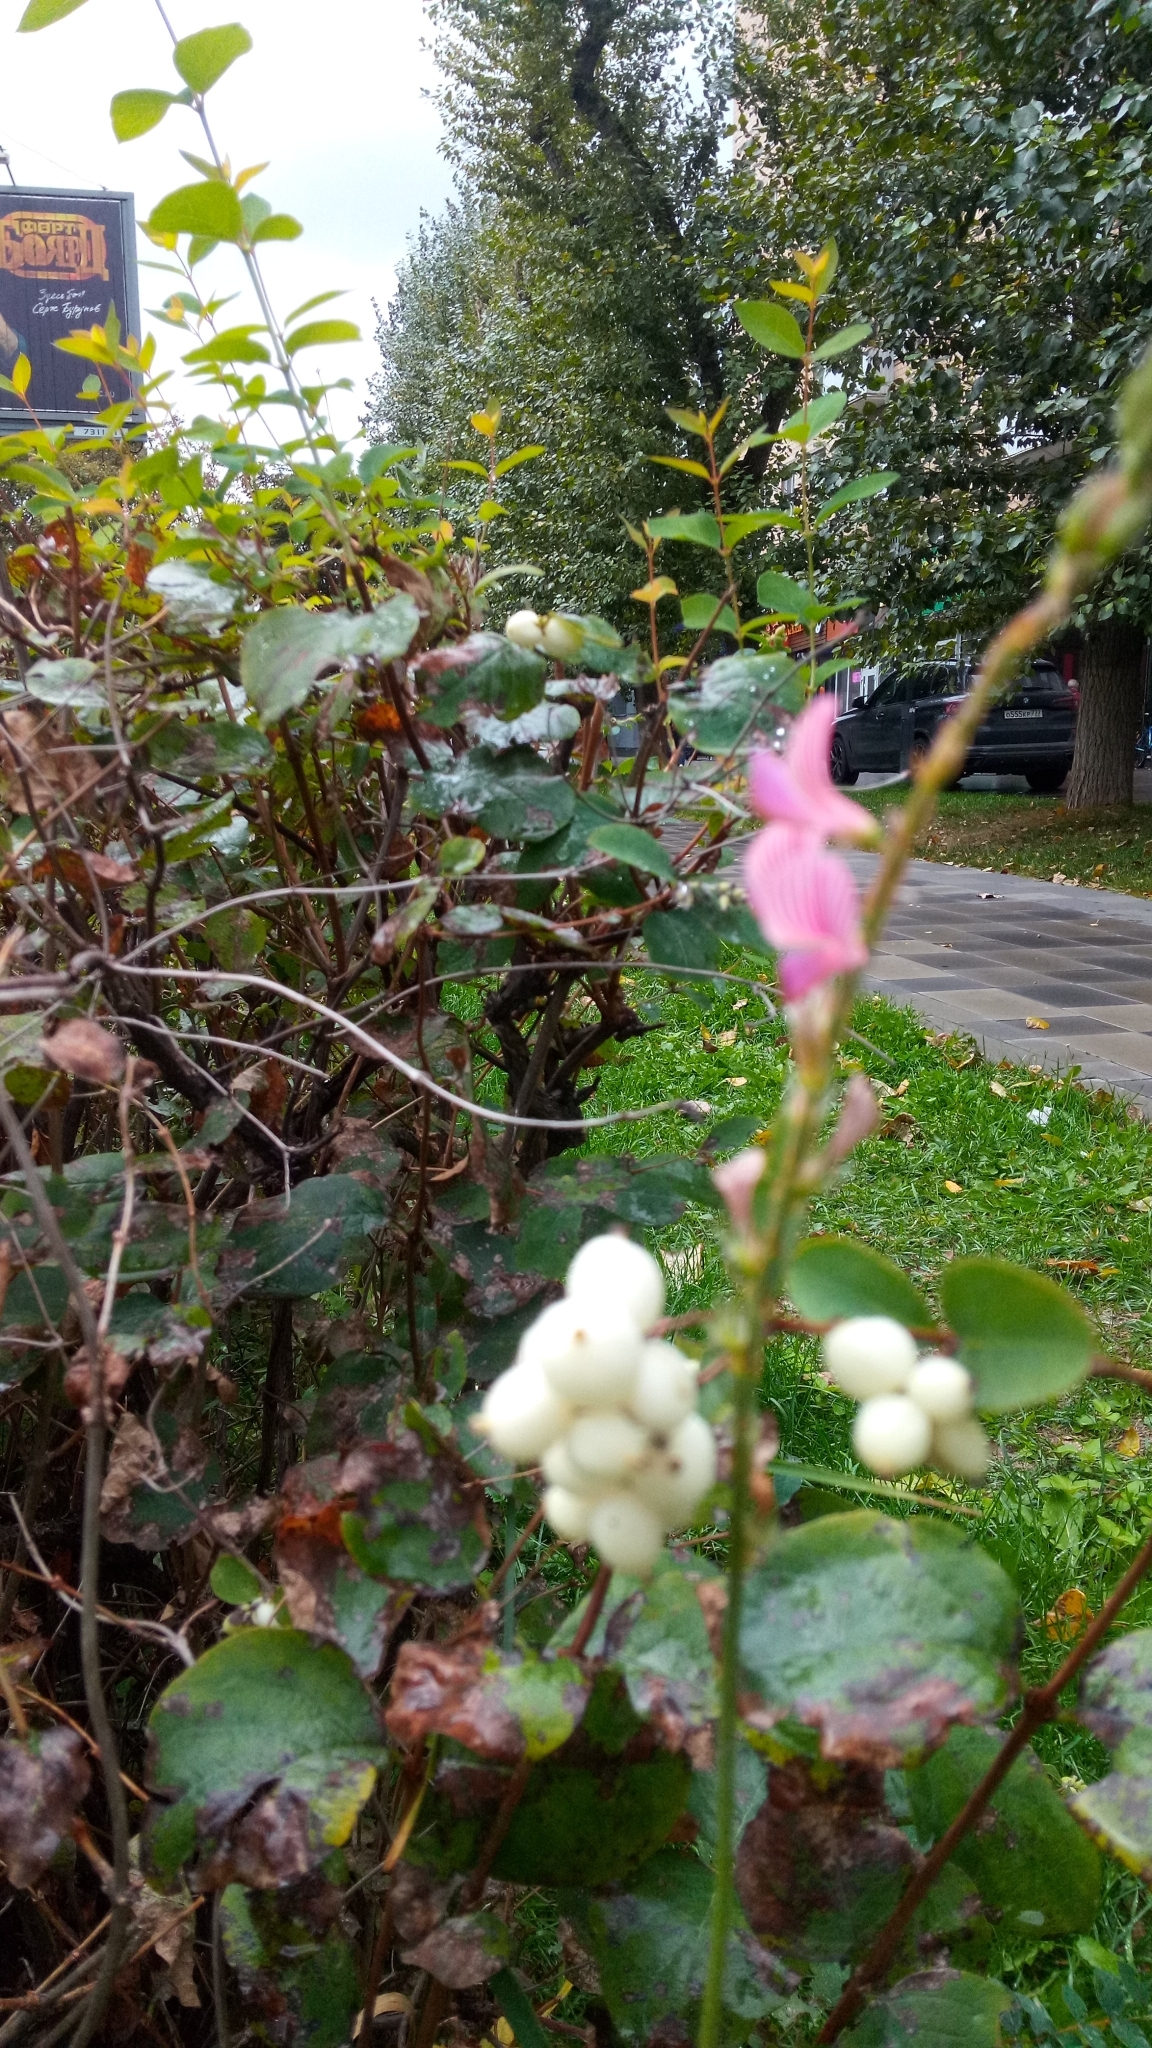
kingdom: Plantae
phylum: Tracheophyta
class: Magnoliopsida
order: Fabales
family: Fabaceae
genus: Onobrychis
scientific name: Onobrychis viciifolia
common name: Sainfoin
